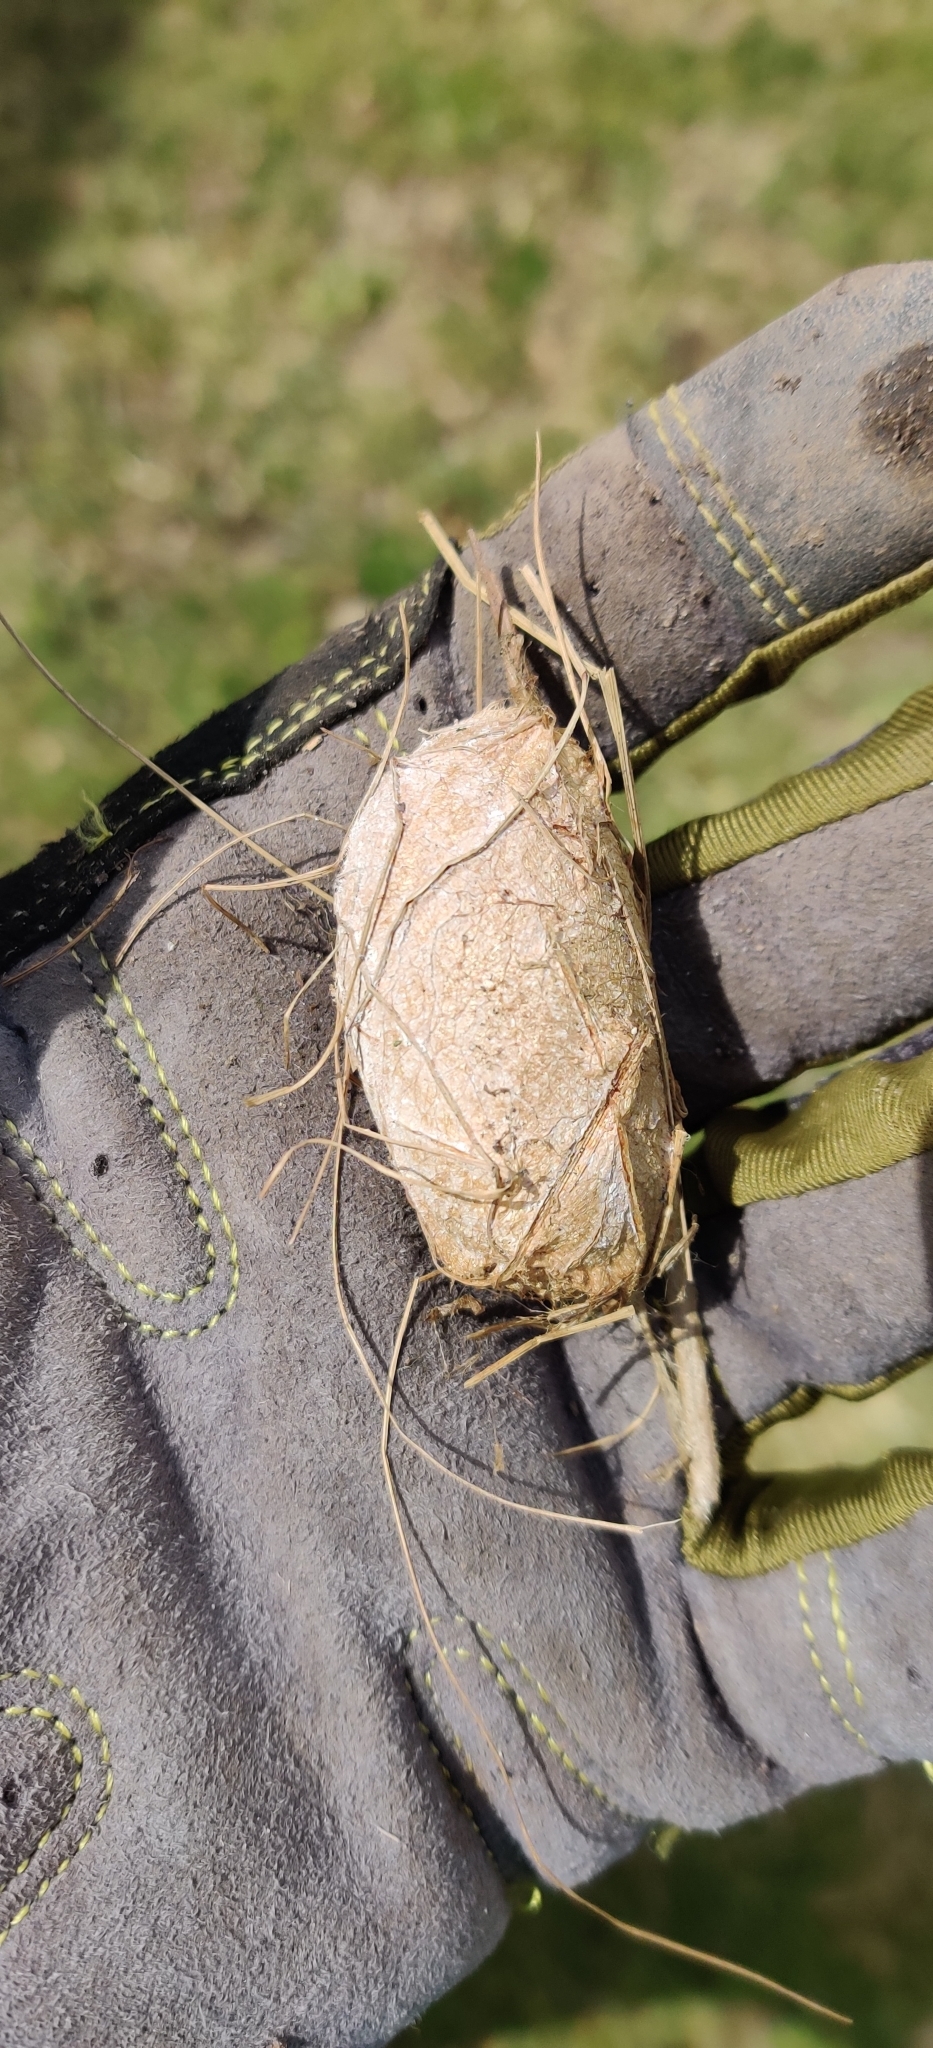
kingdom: Animalia
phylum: Arthropoda
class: Insecta
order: Lepidoptera
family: Saturniidae
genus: Antheraea
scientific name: Antheraea polyphemus
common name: Polyphemus moth
